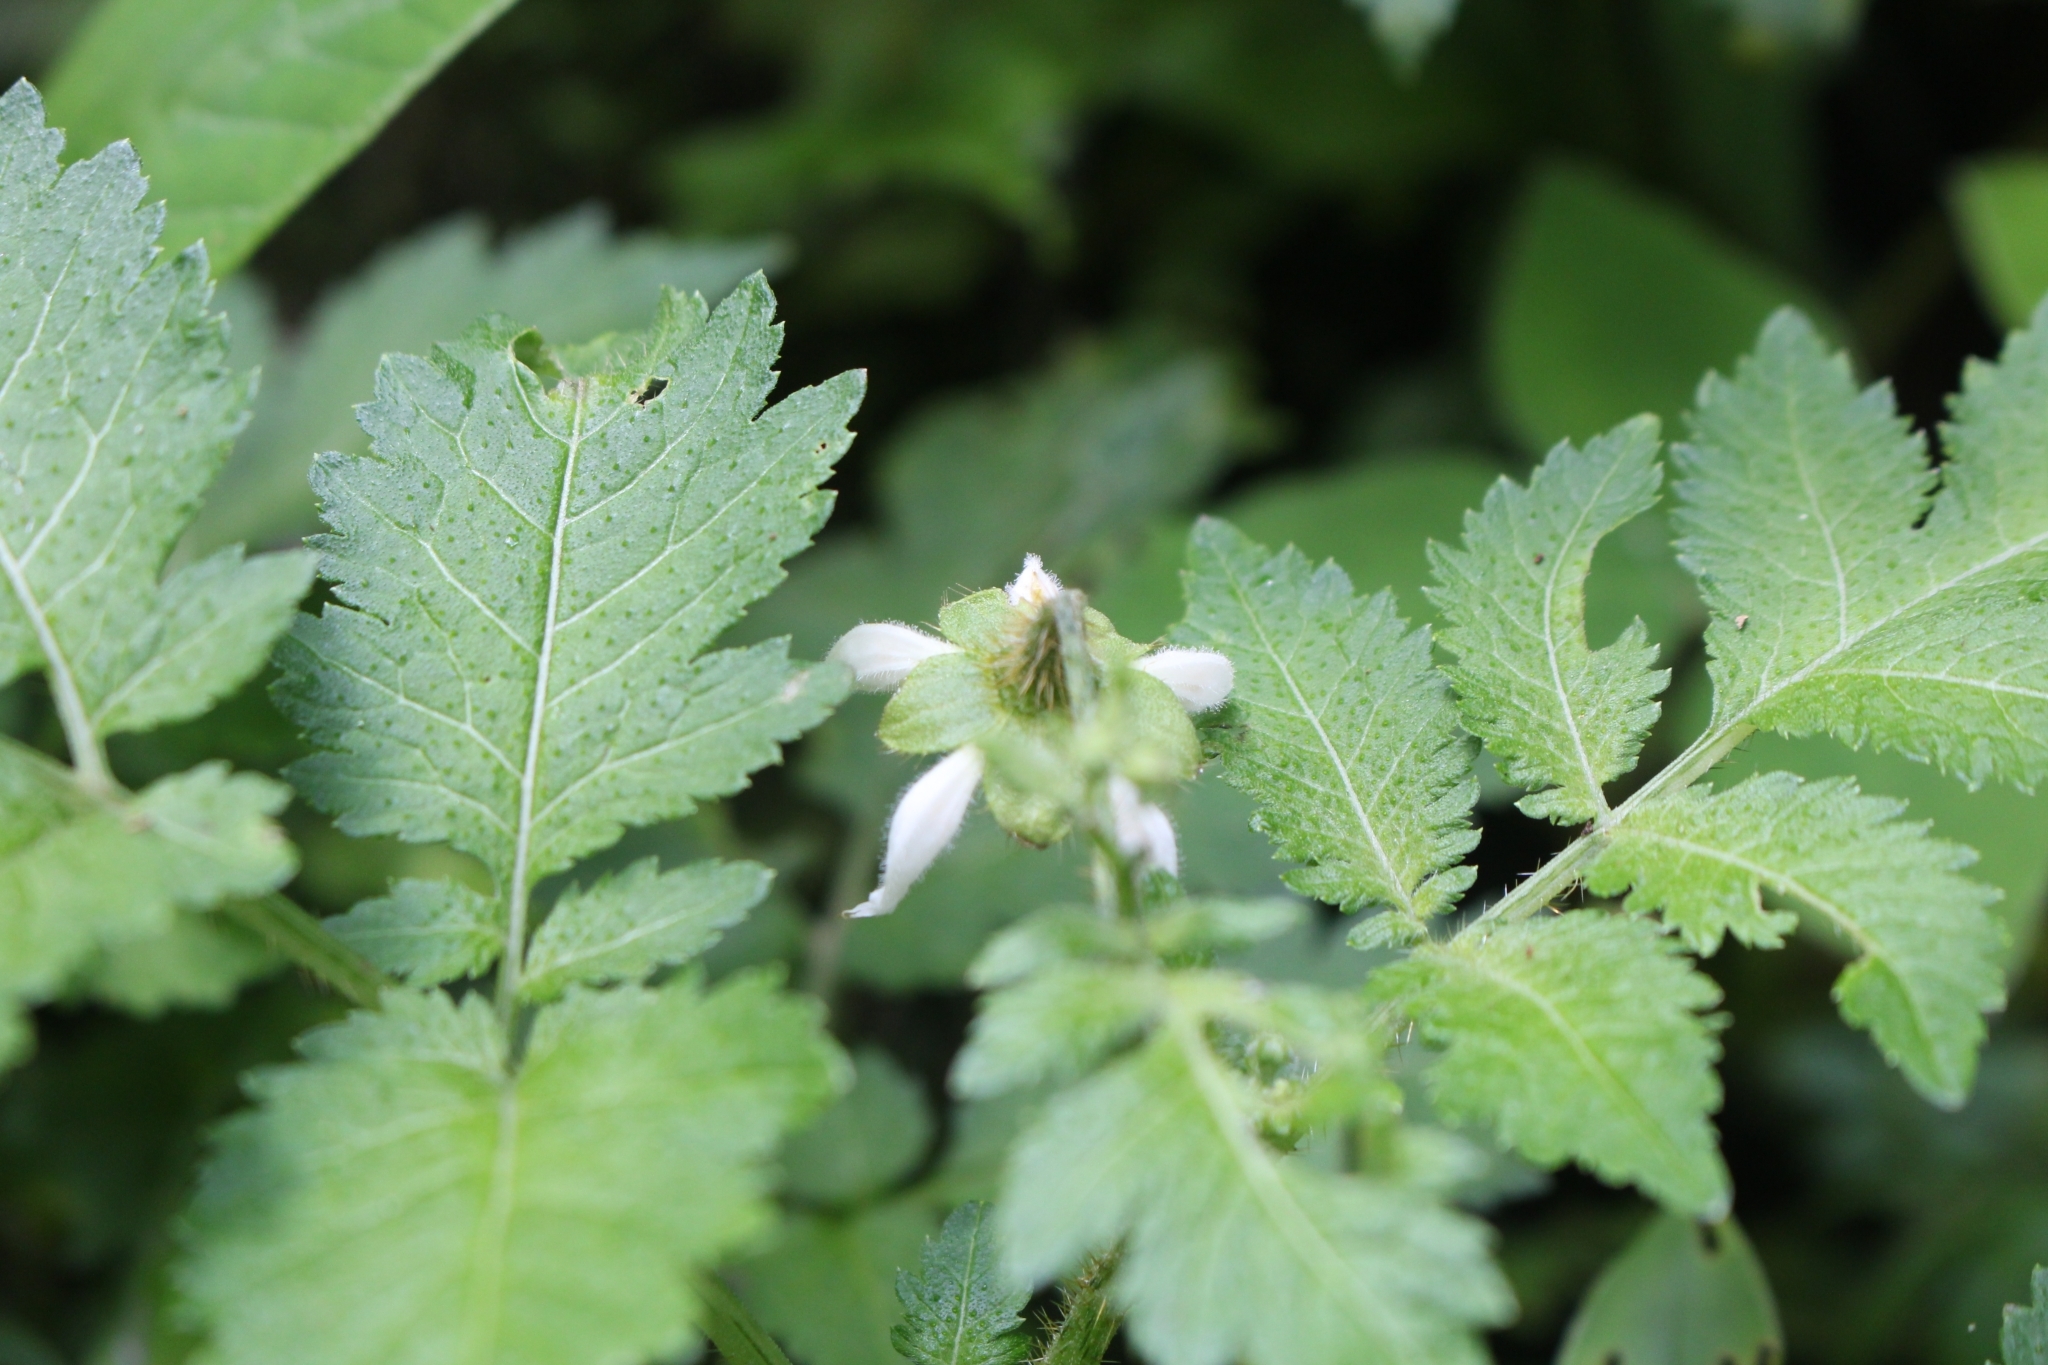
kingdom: Plantae
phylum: Tracheophyta
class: Magnoliopsida
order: Cornales
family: Loasaceae
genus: Nasa
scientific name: Nasa triphylla
